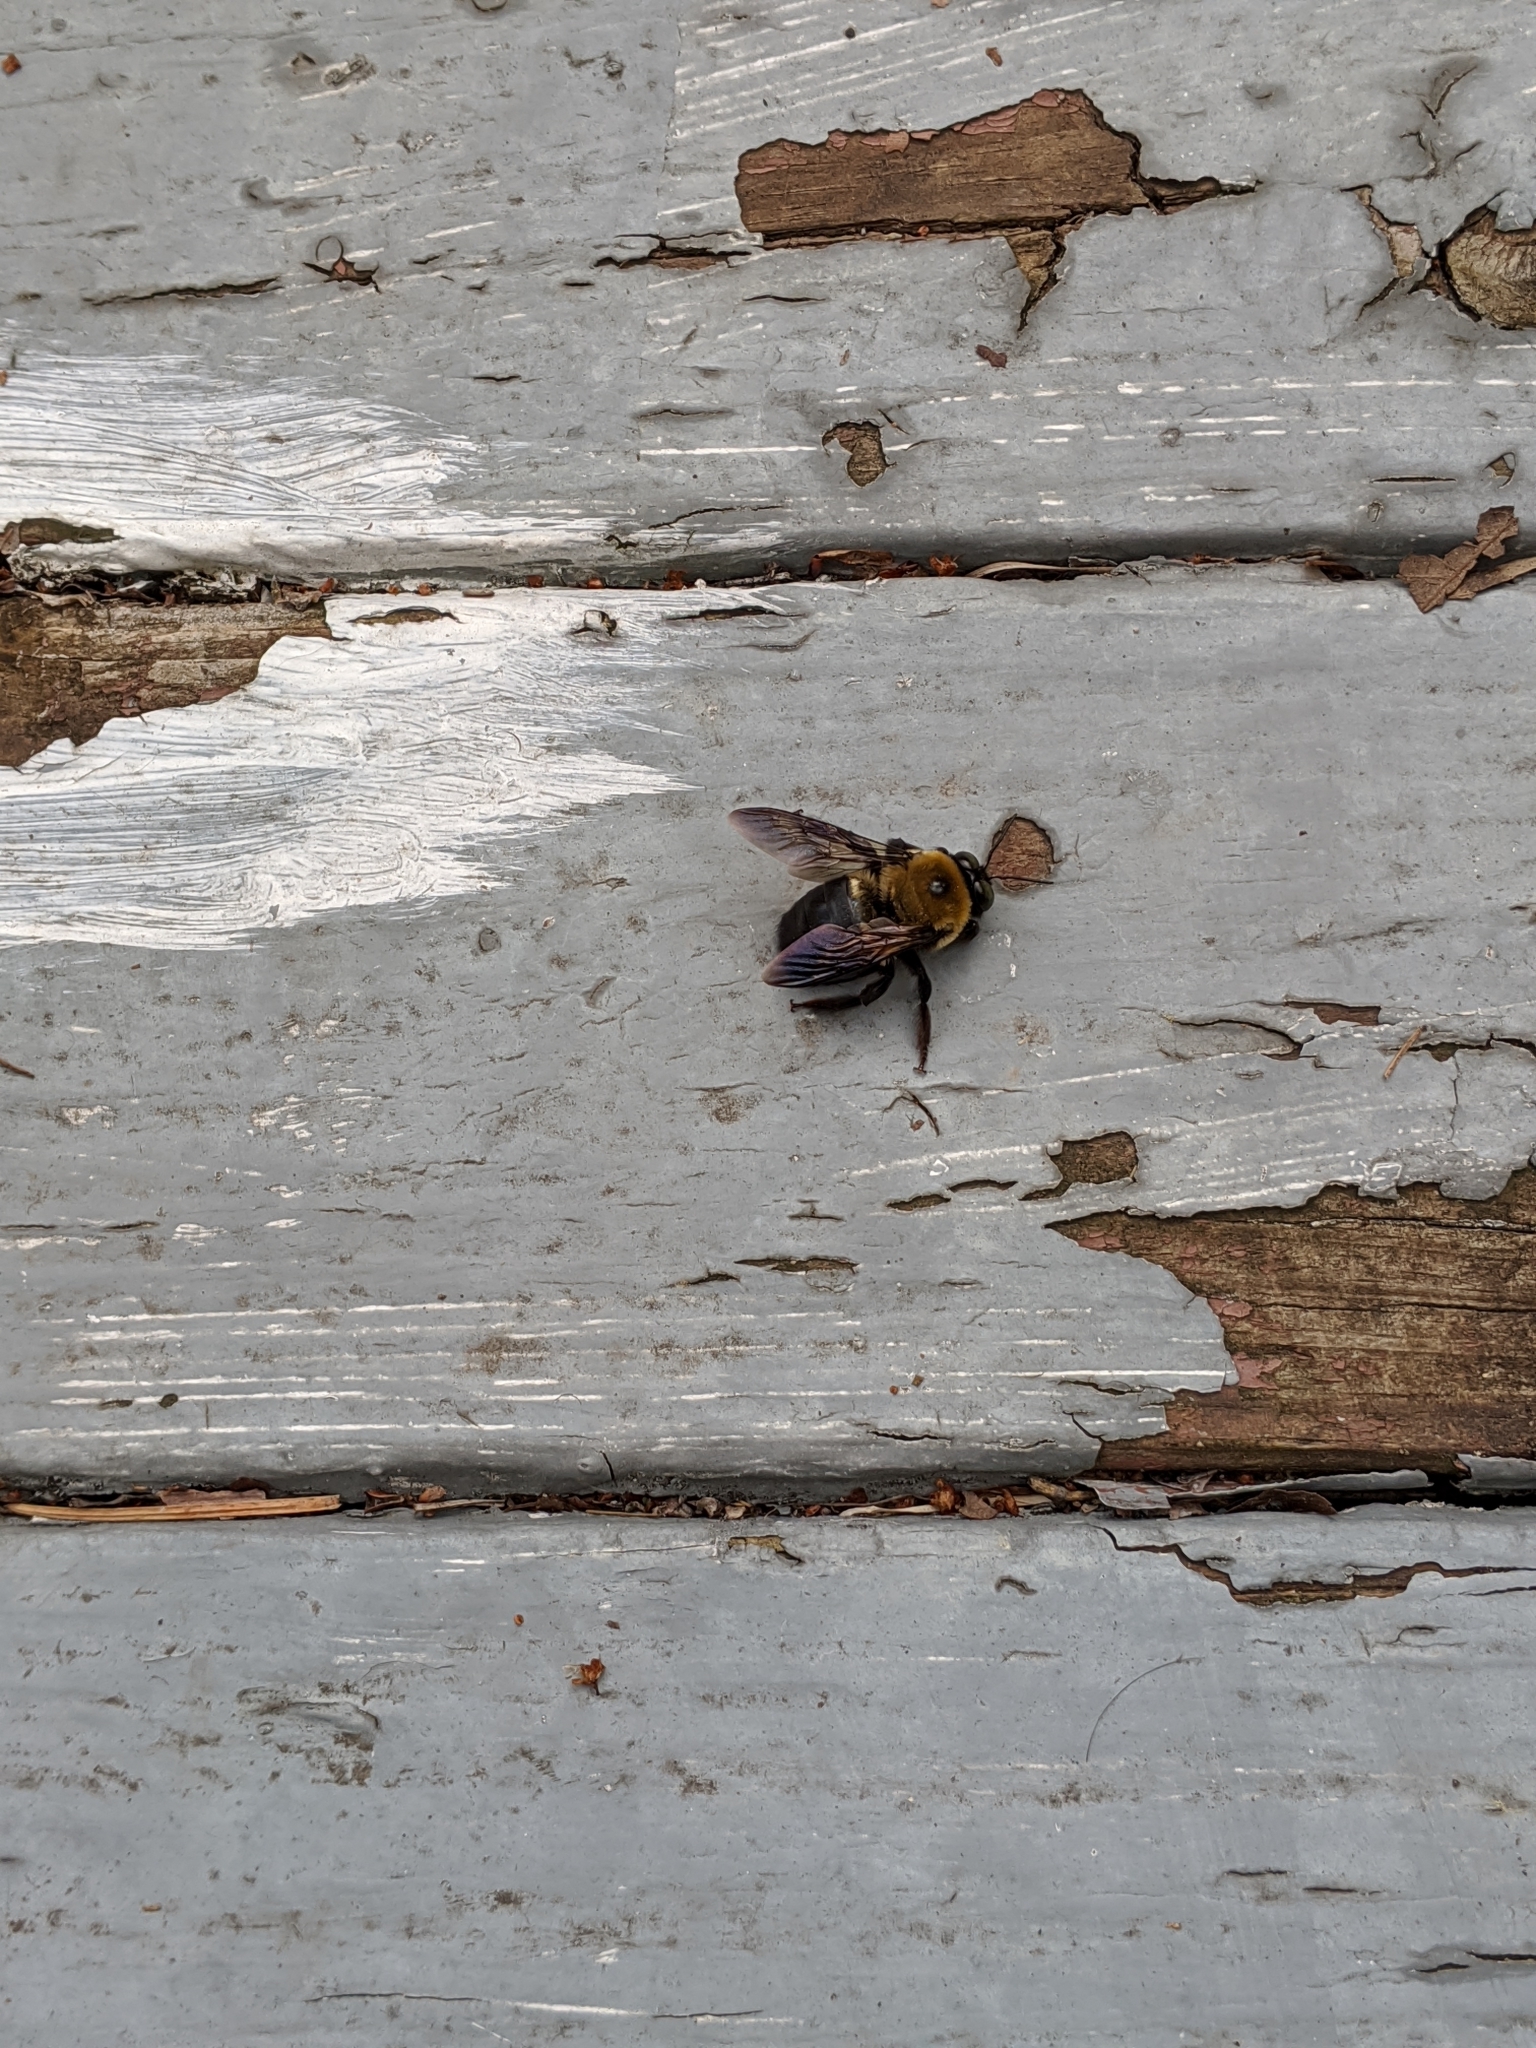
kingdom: Animalia
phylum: Arthropoda
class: Insecta
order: Hymenoptera
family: Apidae
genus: Xylocopa
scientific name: Xylocopa virginica
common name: Carpenter bee
